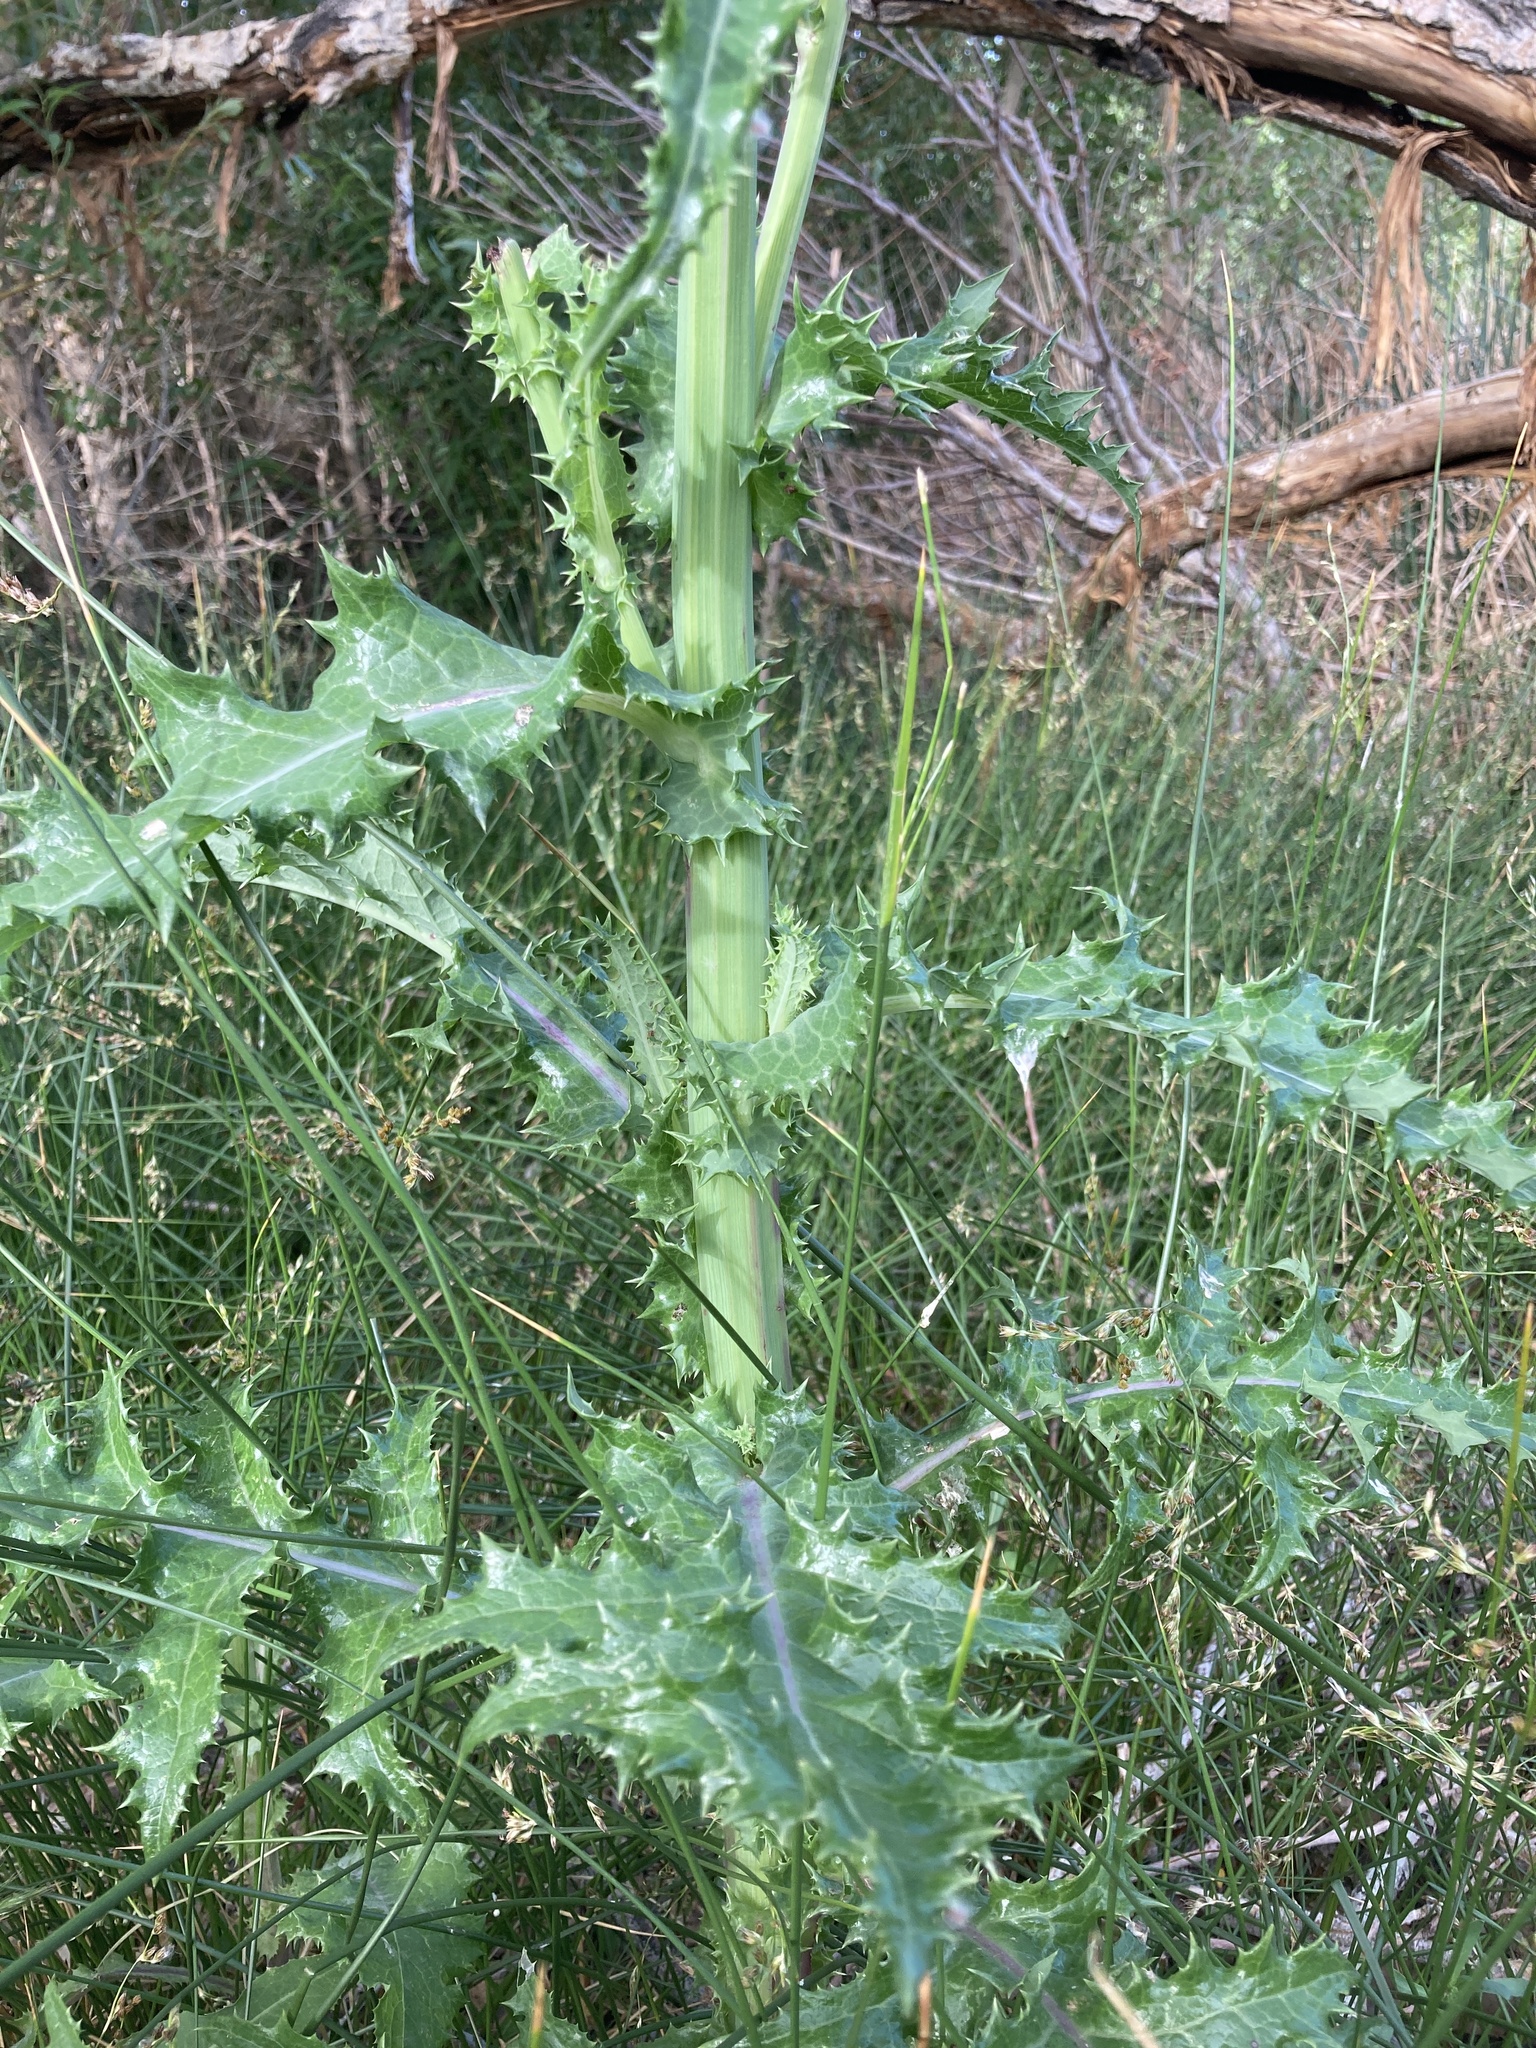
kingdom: Plantae
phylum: Tracheophyta
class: Magnoliopsida
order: Asterales
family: Asteraceae
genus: Sonchus
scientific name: Sonchus asper
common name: Prickly sow-thistle
